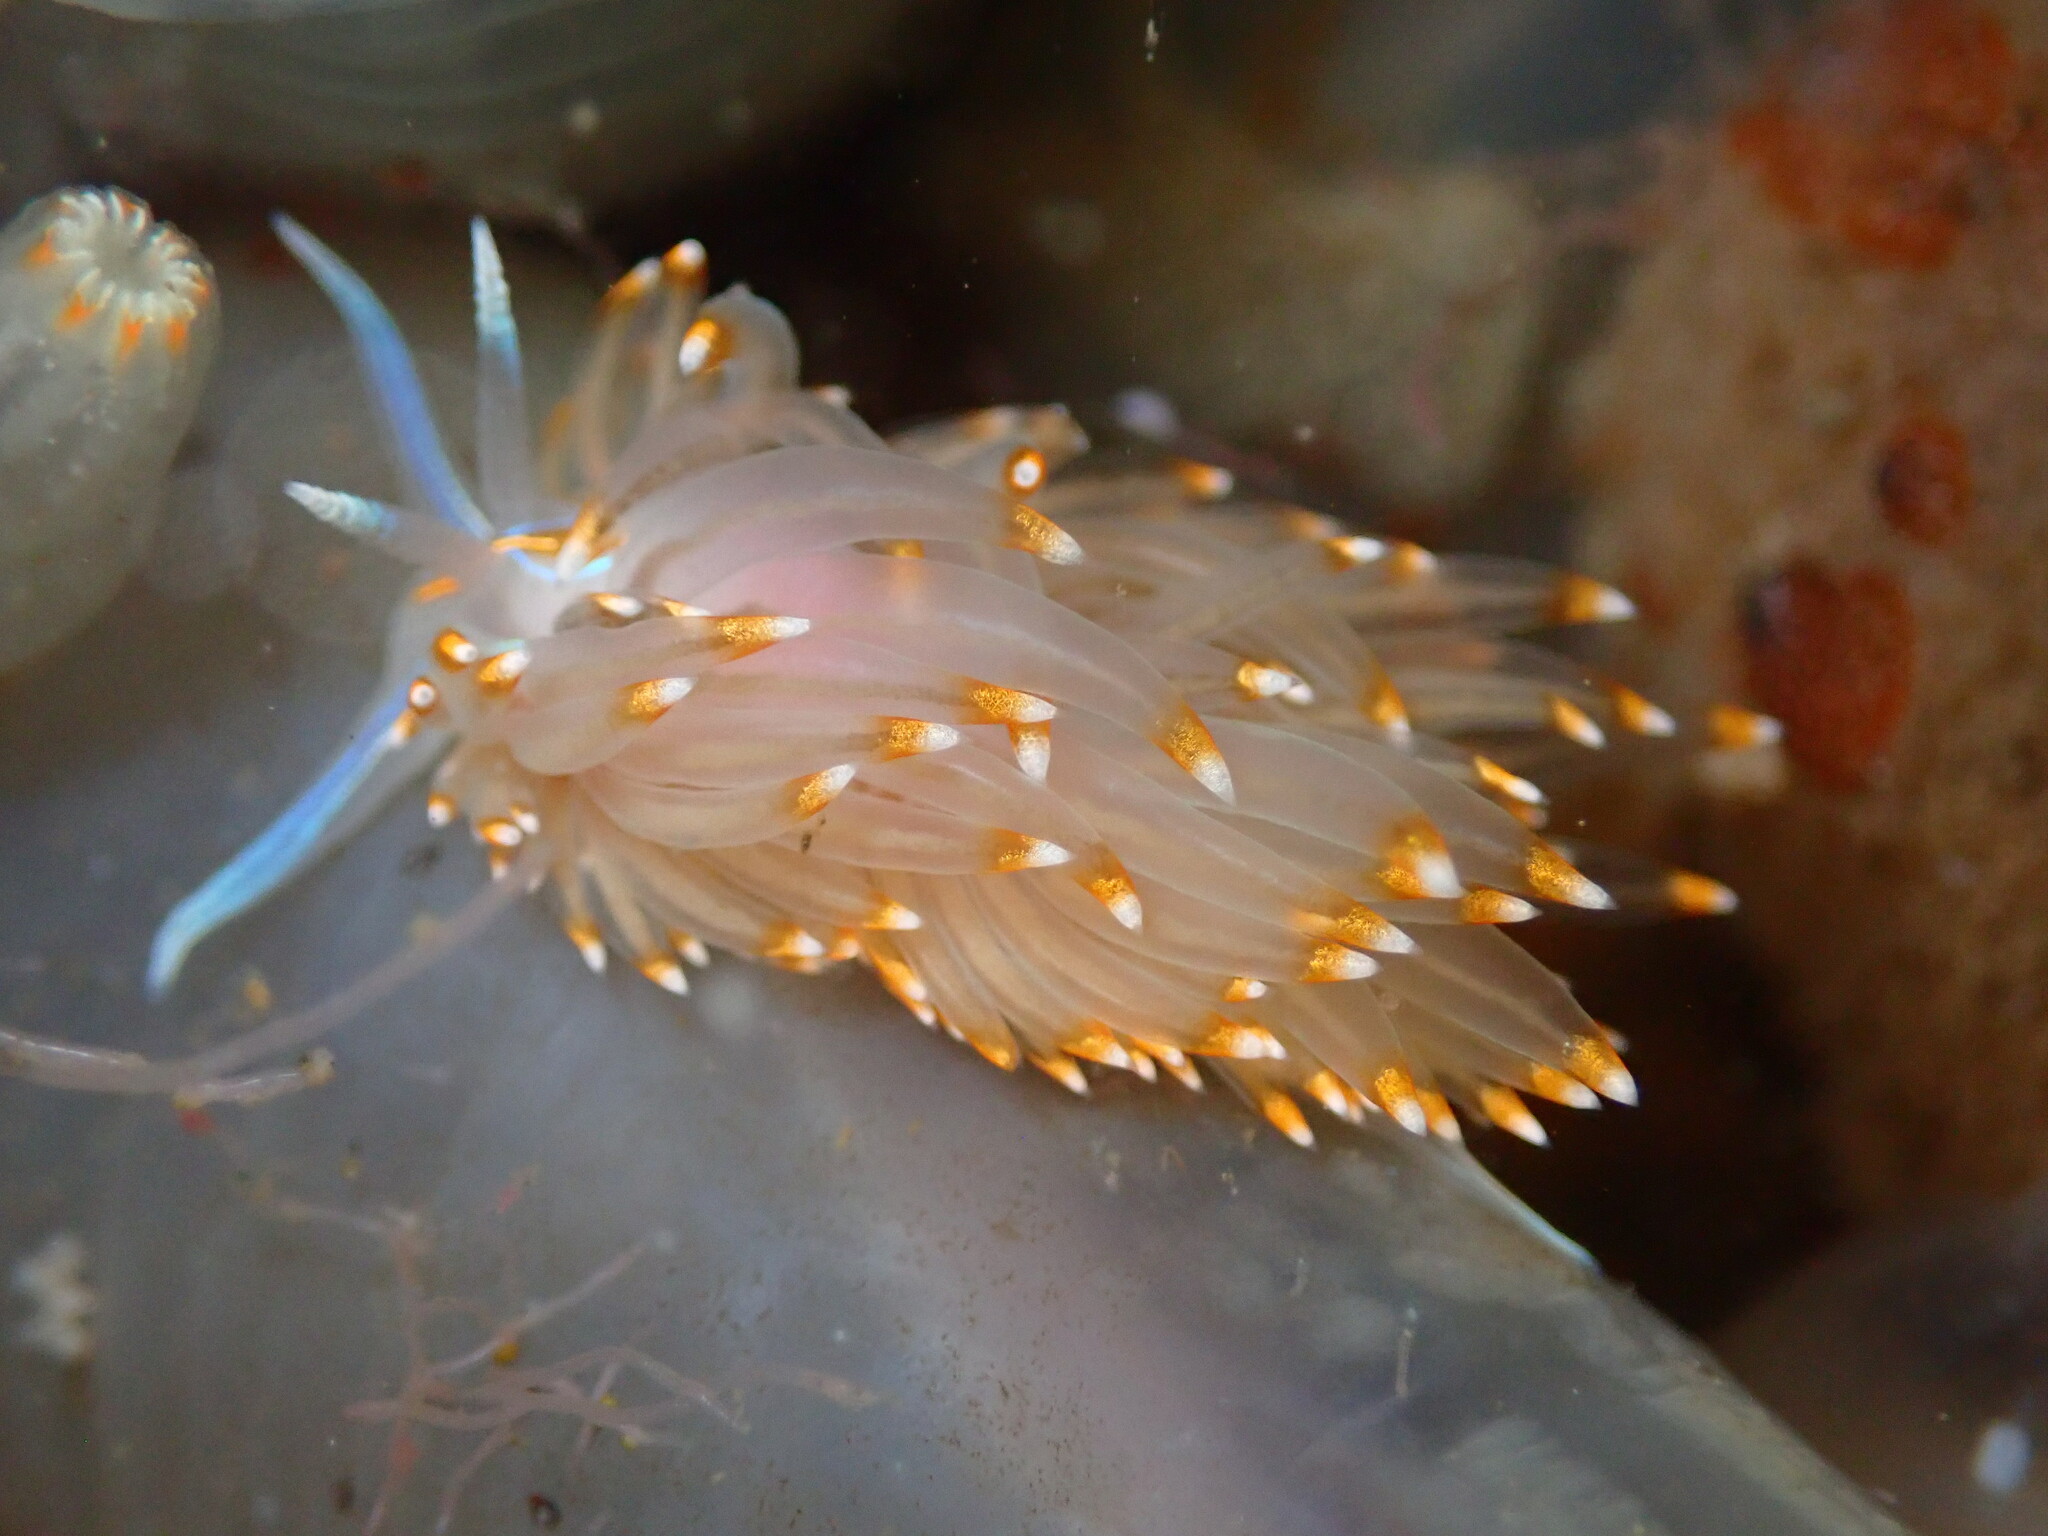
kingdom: Animalia
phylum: Mollusca
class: Gastropoda
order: Nudibranchia
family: Myrrhinidae
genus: Hermissenda
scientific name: Hermissenda opalescens
